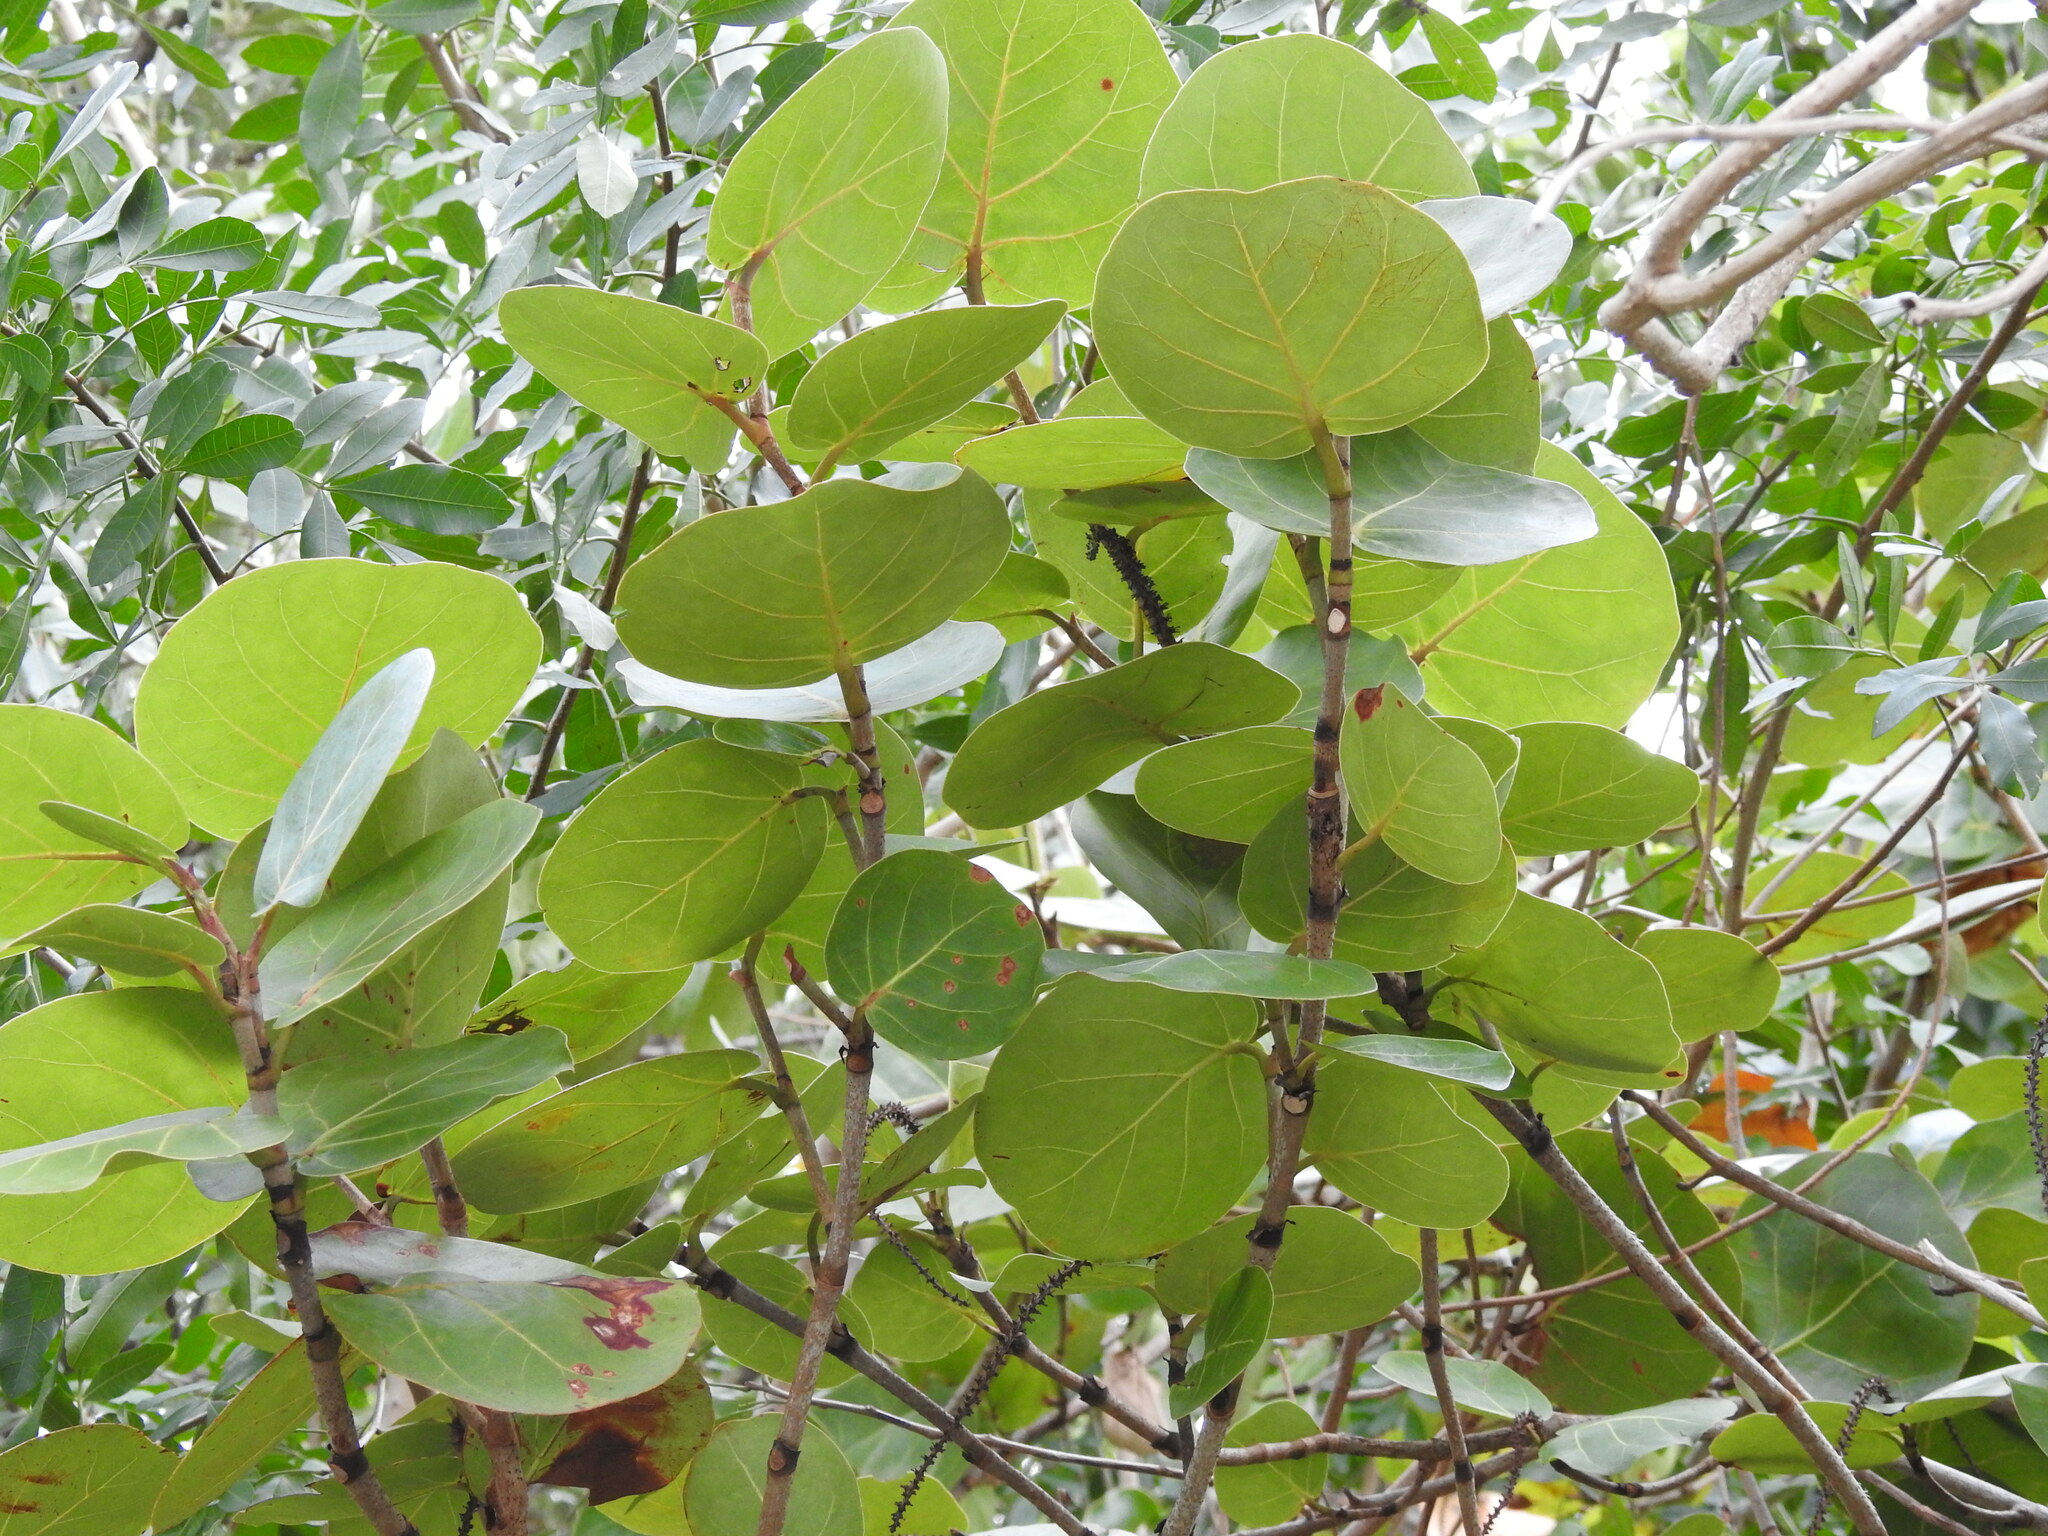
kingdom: Plantae
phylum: Tracheophyta
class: Magnoliopsida
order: Caryophyllales
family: Polygonaceae
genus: Coccoloba
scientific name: Coccoloba uvifera
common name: Seagrape
